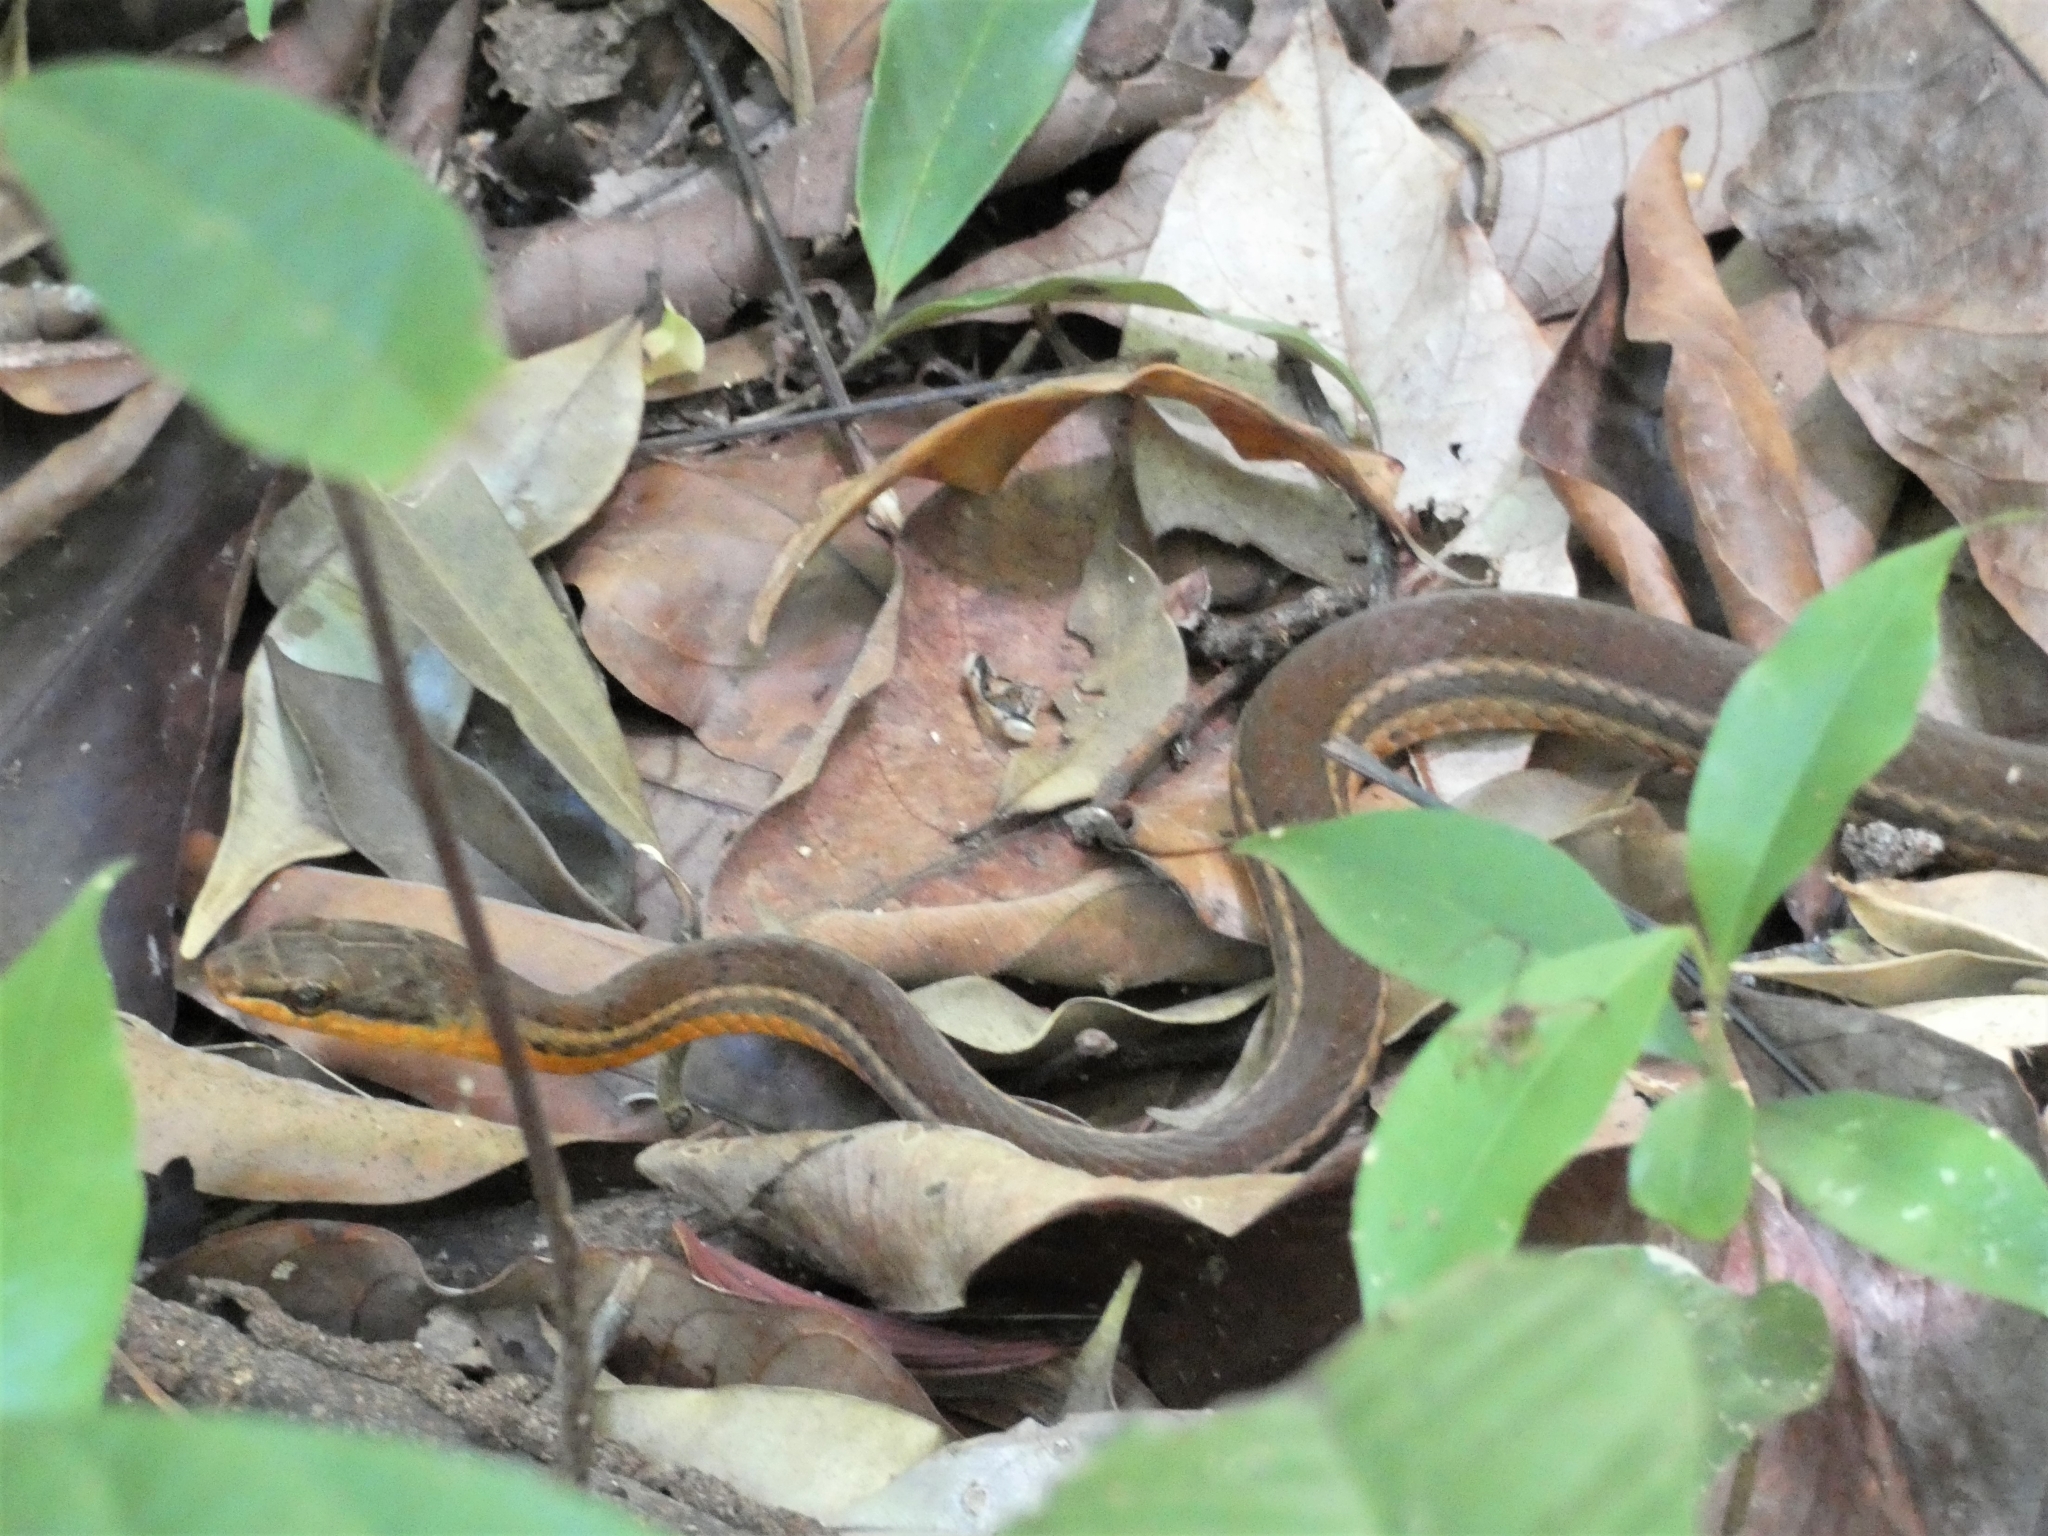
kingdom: Animalia
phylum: Chordata
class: Squamata
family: Colubridae
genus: Mastigodryas
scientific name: Mastigodryas melanolomus
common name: Salmon-bellied racer
